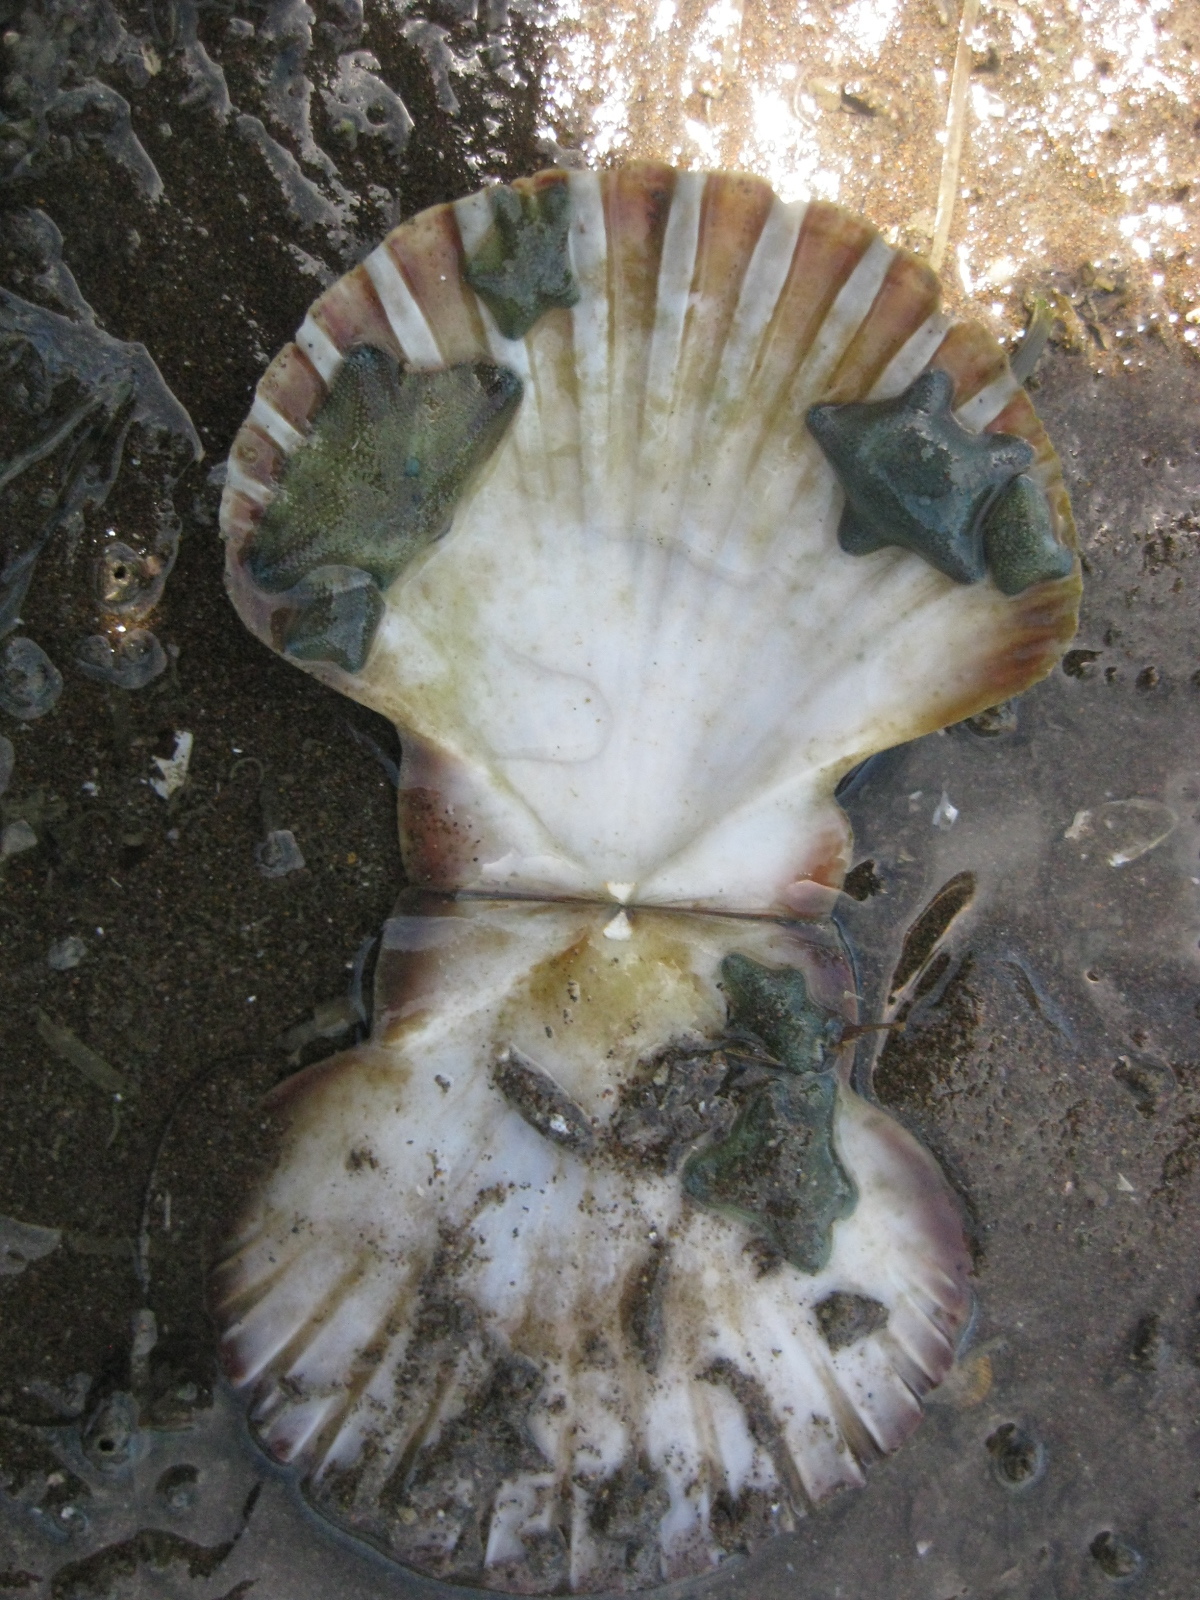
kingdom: Animalia
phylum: Echinodermata
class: Asteroidea
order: Valvatida
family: Asterinidae
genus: Patiriella
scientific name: Patiriella regularis
